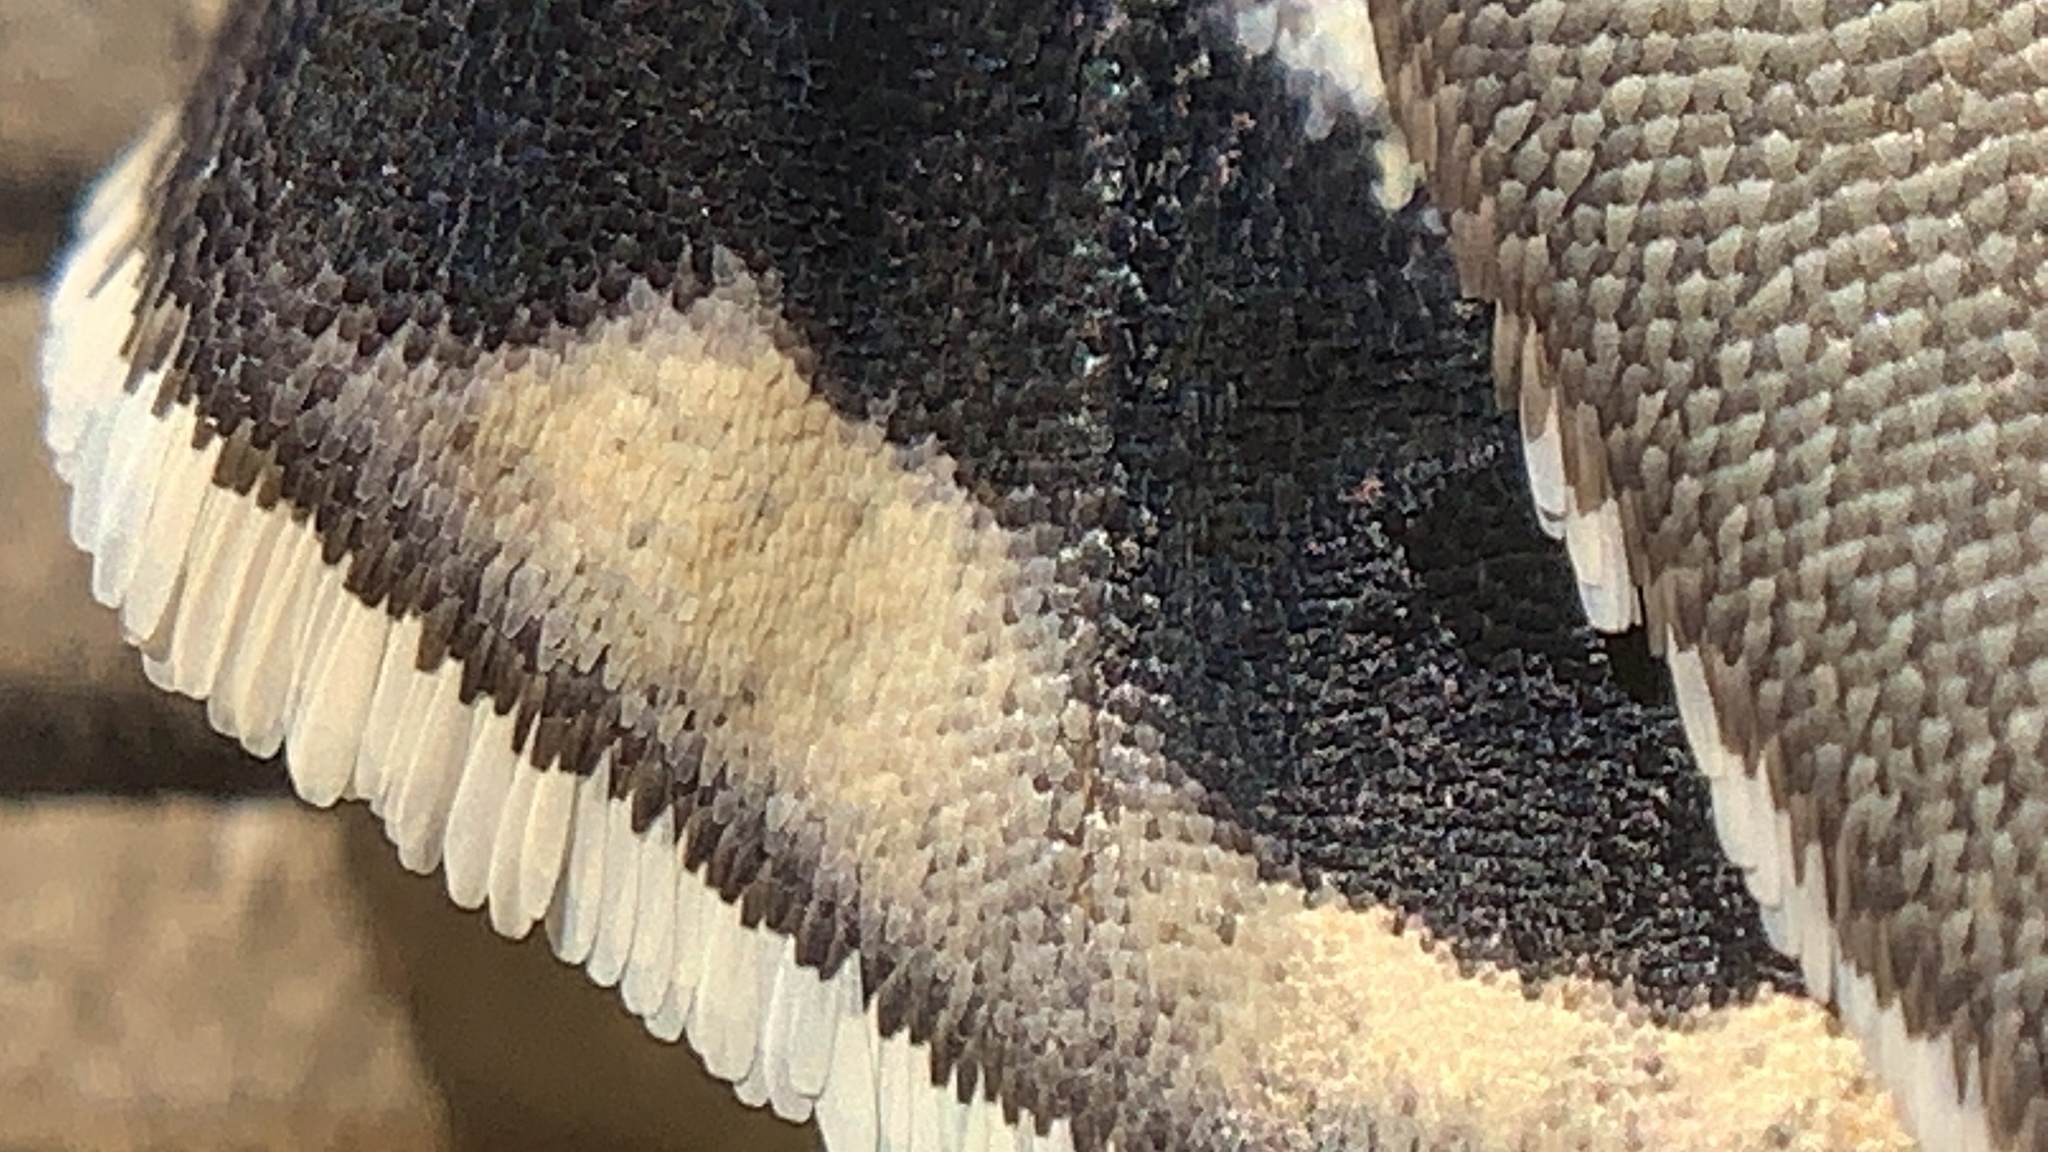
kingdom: Animalia
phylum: Arthropoda
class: Insecta
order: Lepidoptera
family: Castniidae
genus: Paysandisia
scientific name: Paysandisia archon
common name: Palm moth
